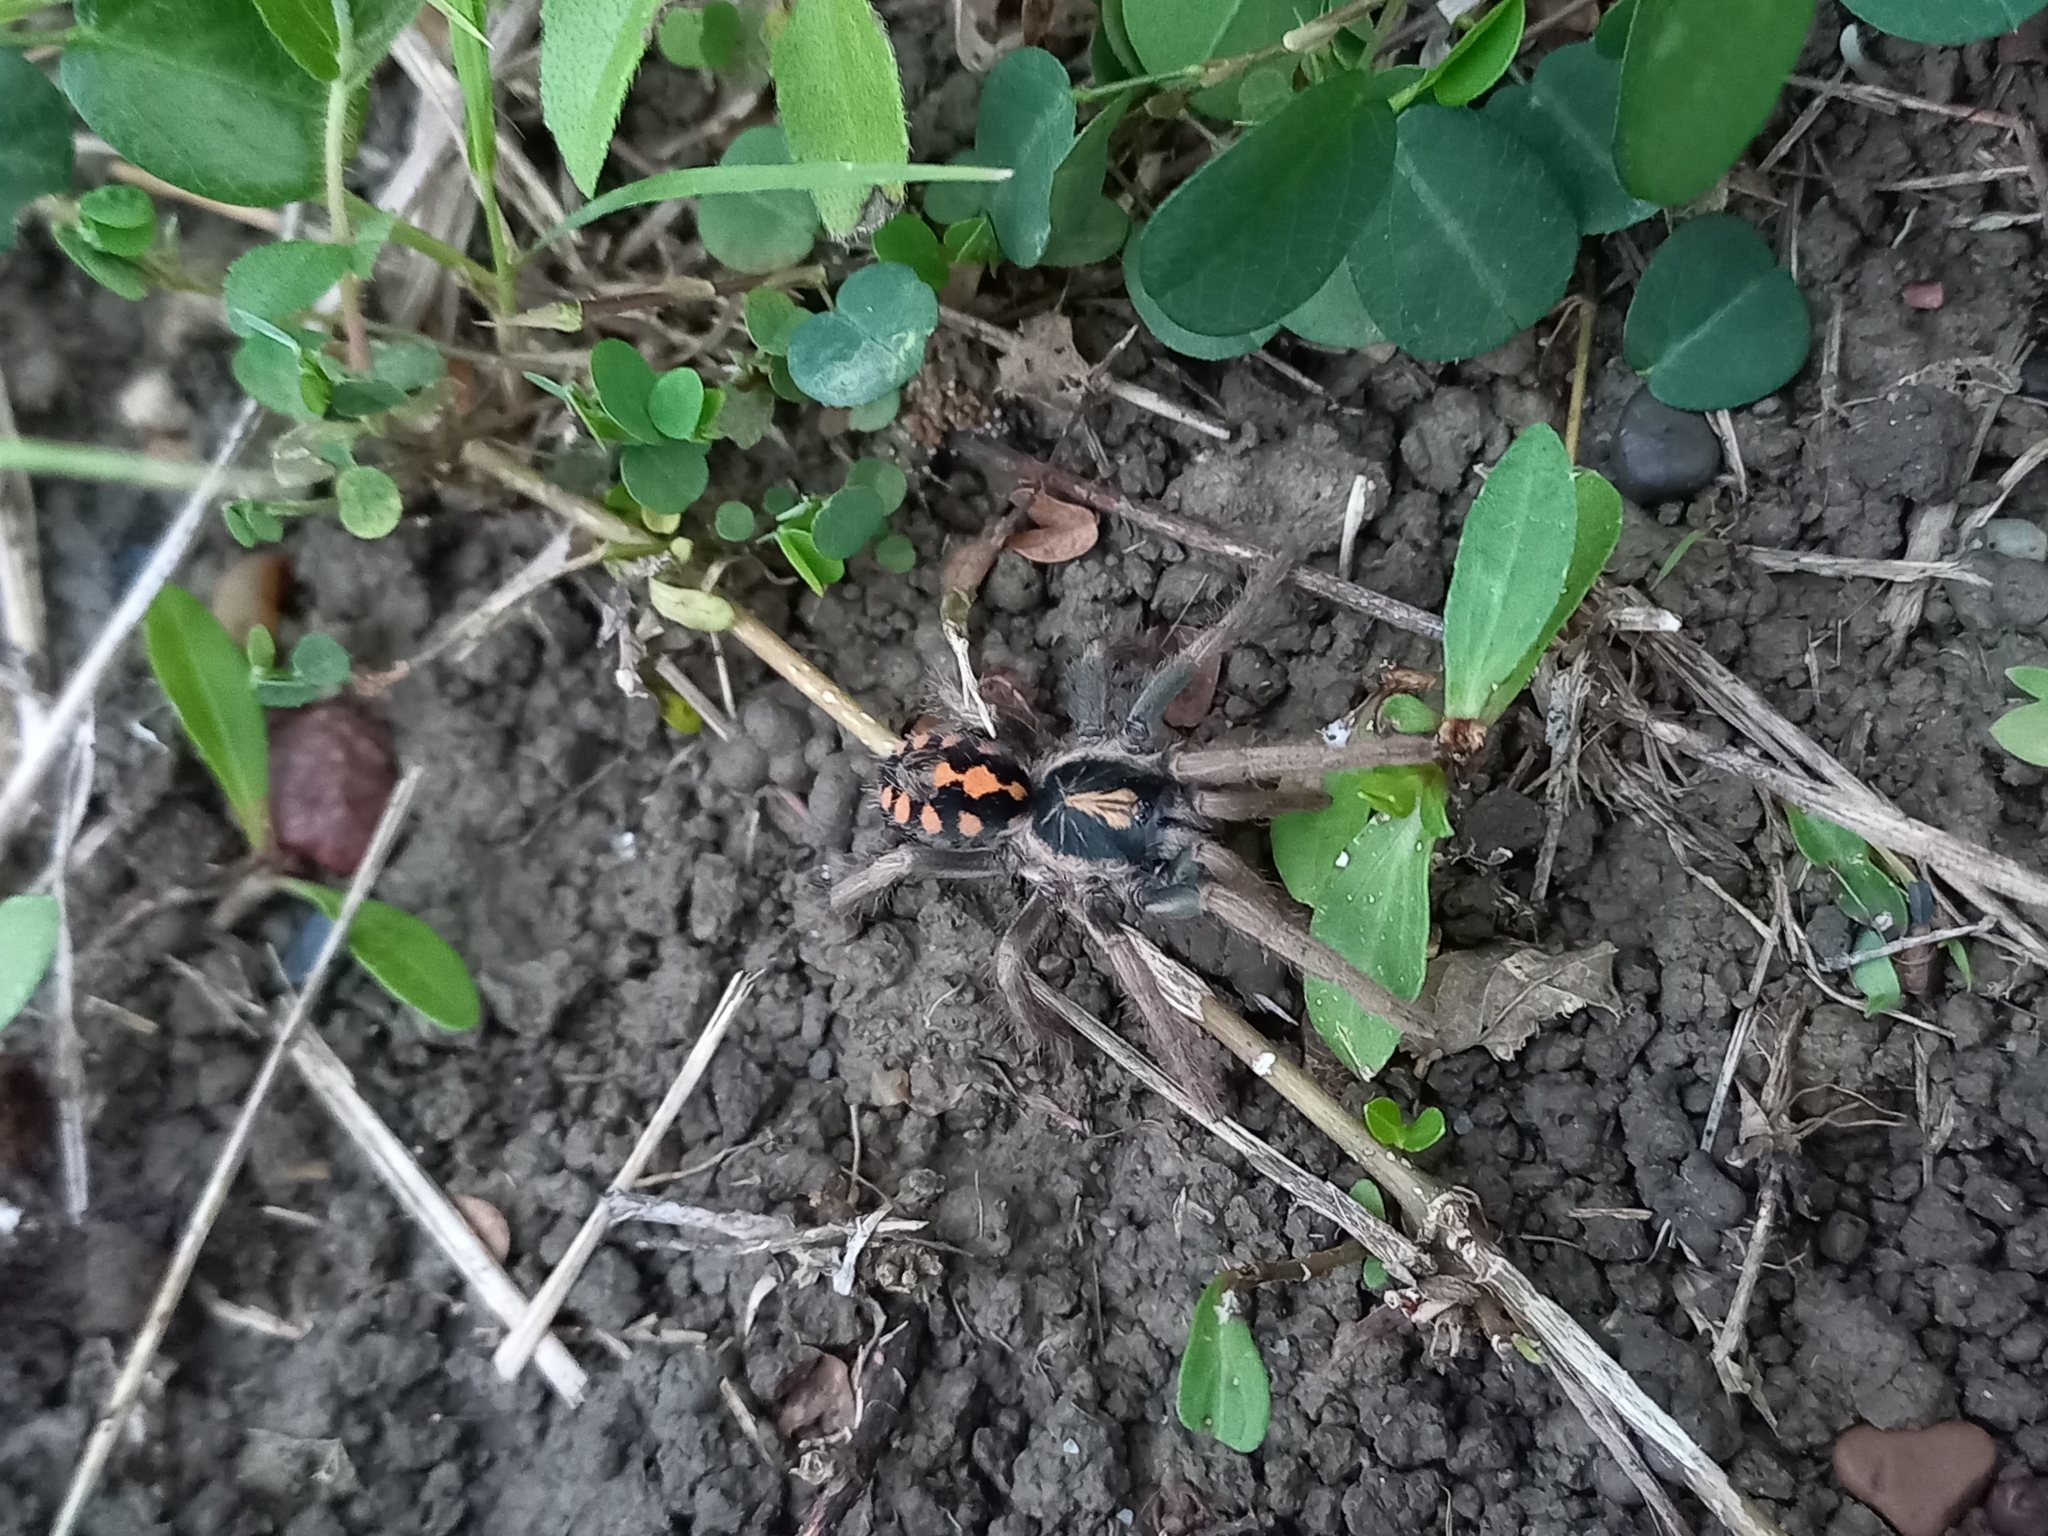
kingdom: Animalia
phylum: Arthropoda
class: Arachnida
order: Araneae
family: Theraphosidae
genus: Hapalopus
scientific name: Hapalopus formosus
